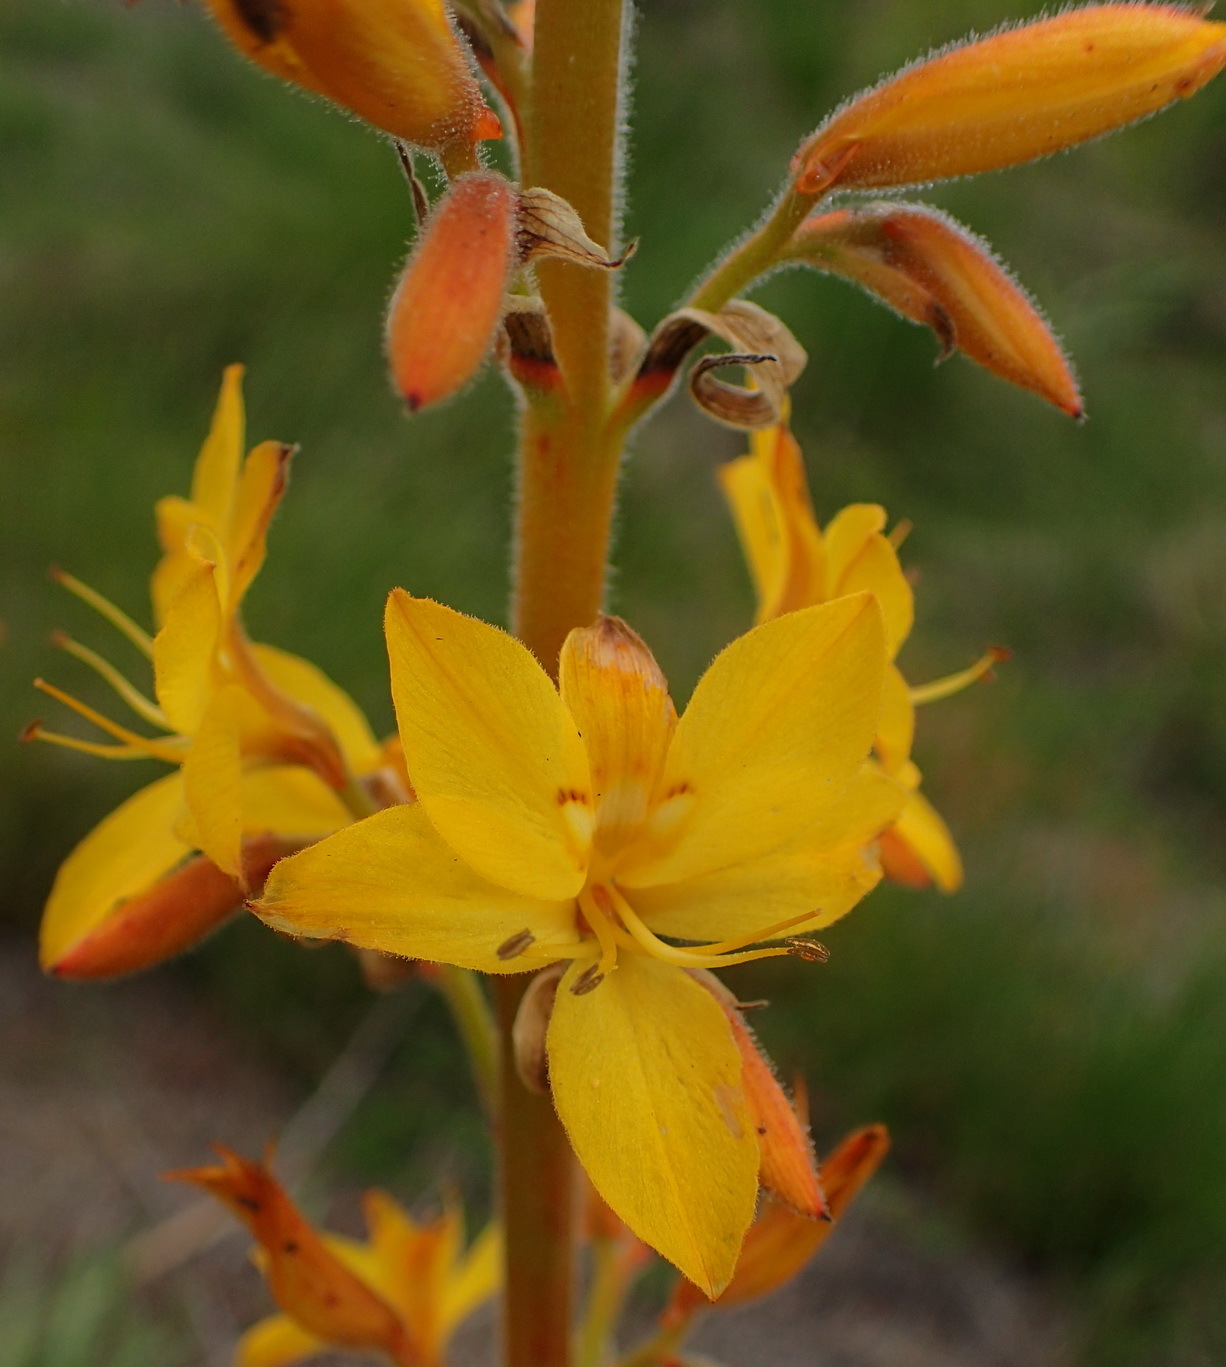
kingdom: Plantae
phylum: Tracheophyta
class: Liliopsida
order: Commelinales
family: Haemodoraceae
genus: Wachendorfia
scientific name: Wachendorfia thyrsiflora
